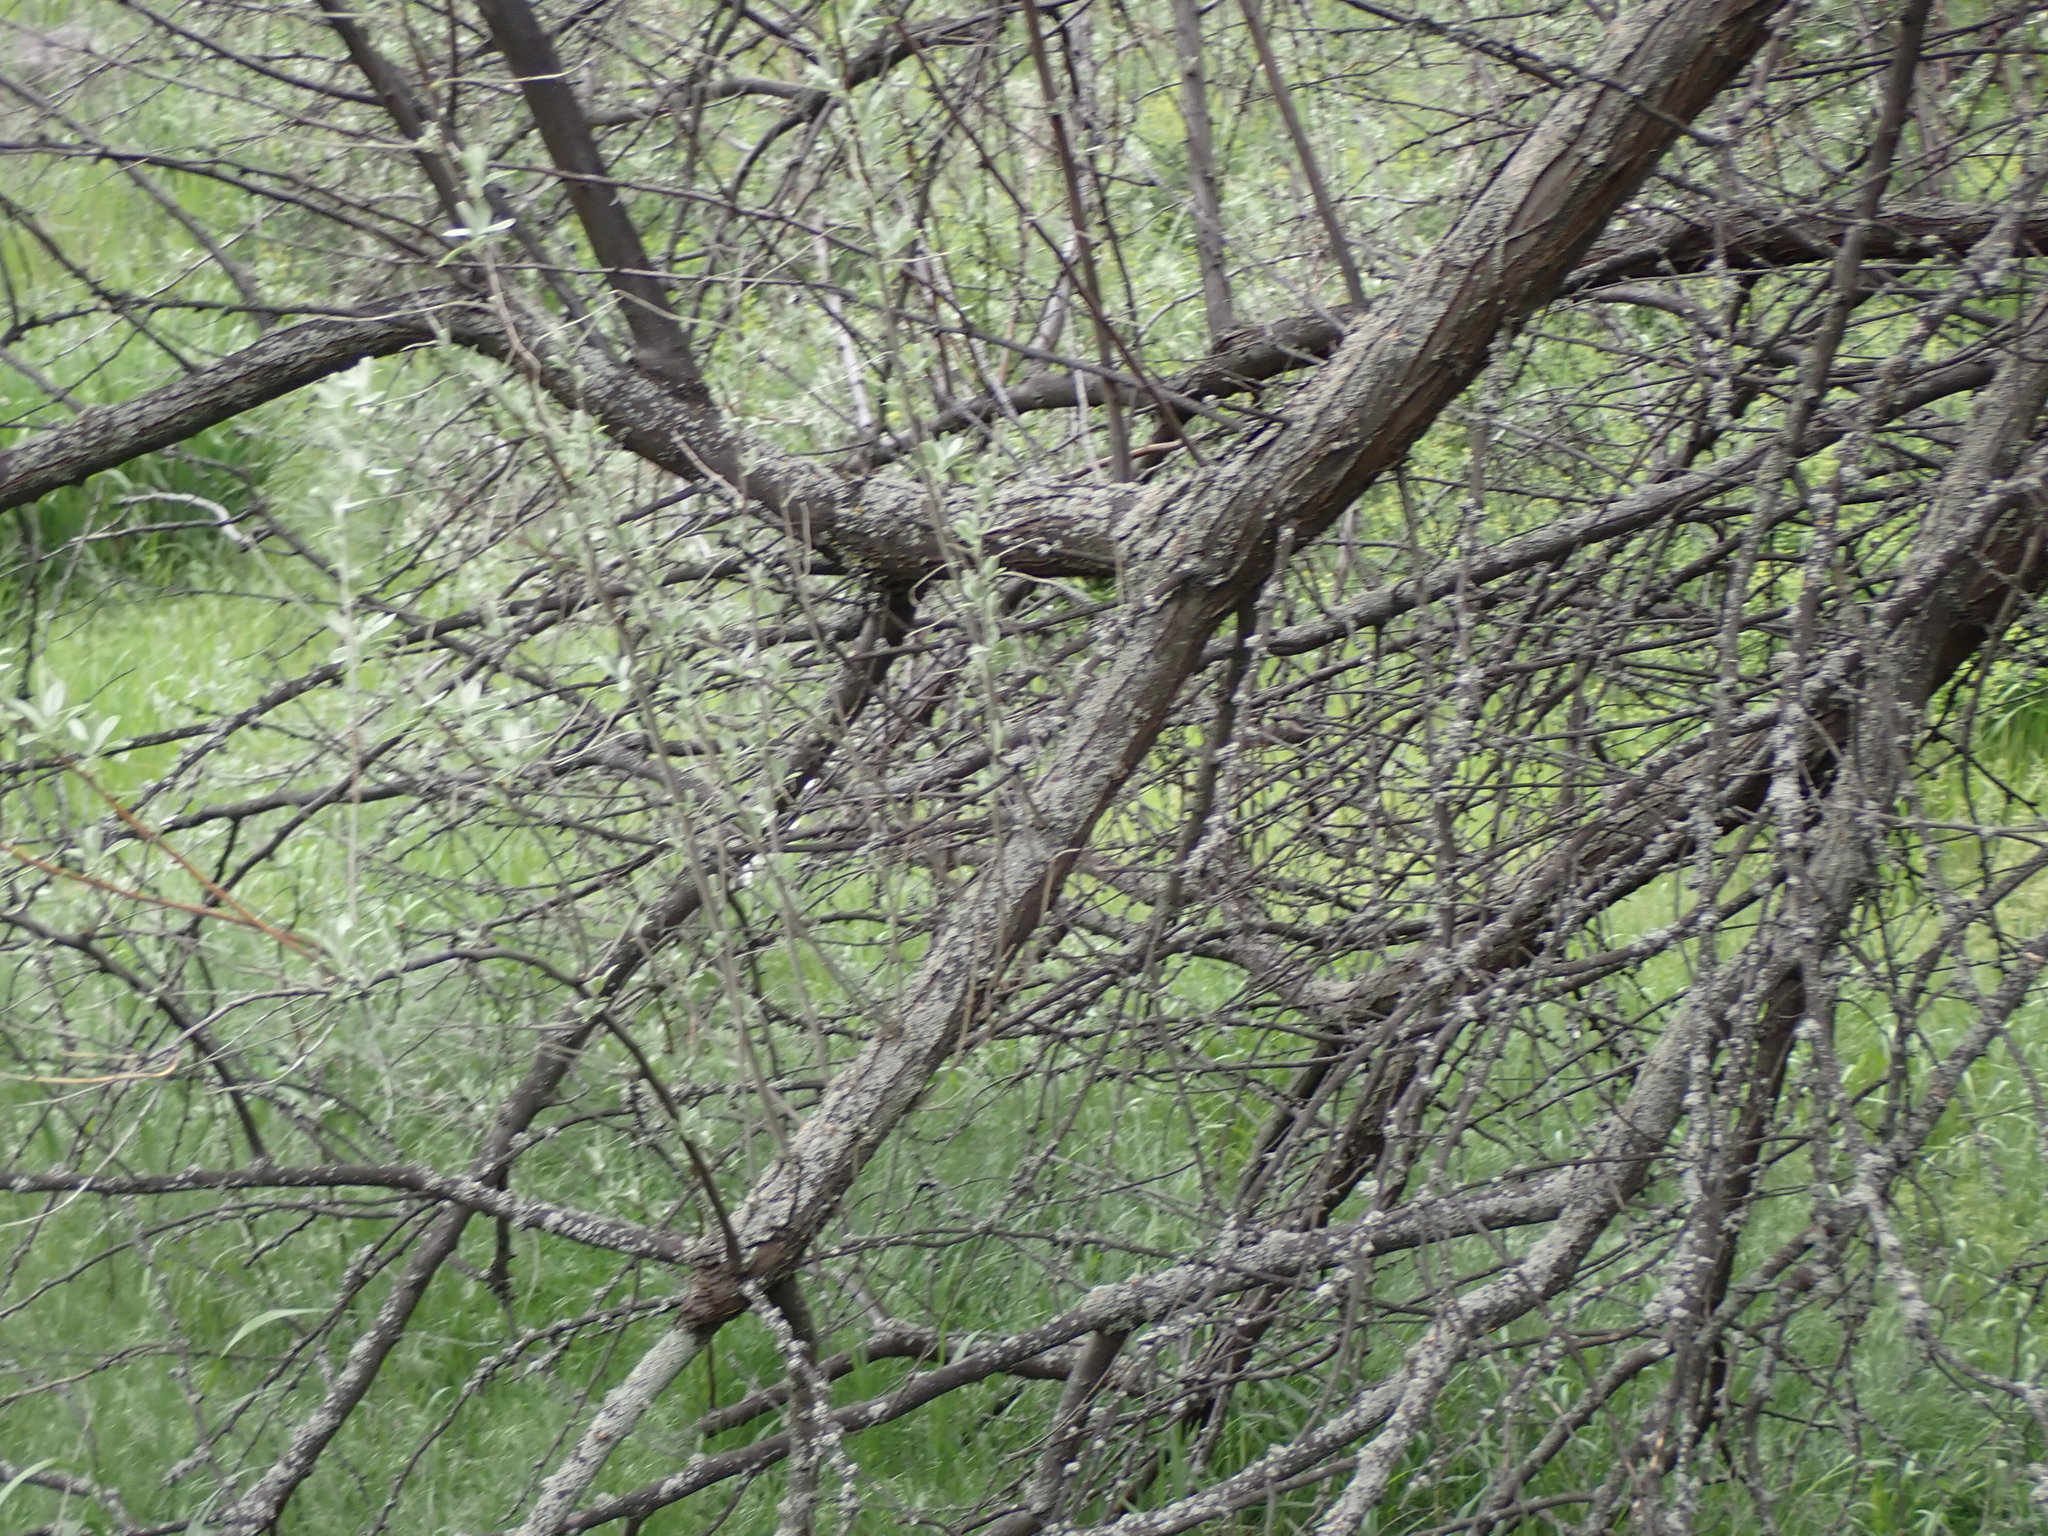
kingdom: Plantae
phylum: Tracheophyta
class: Magnoliopsida
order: Rosales
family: Elaeagnaceae
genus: Elaeagnus
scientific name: Elaeagnus angustifolia
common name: Russian olive
